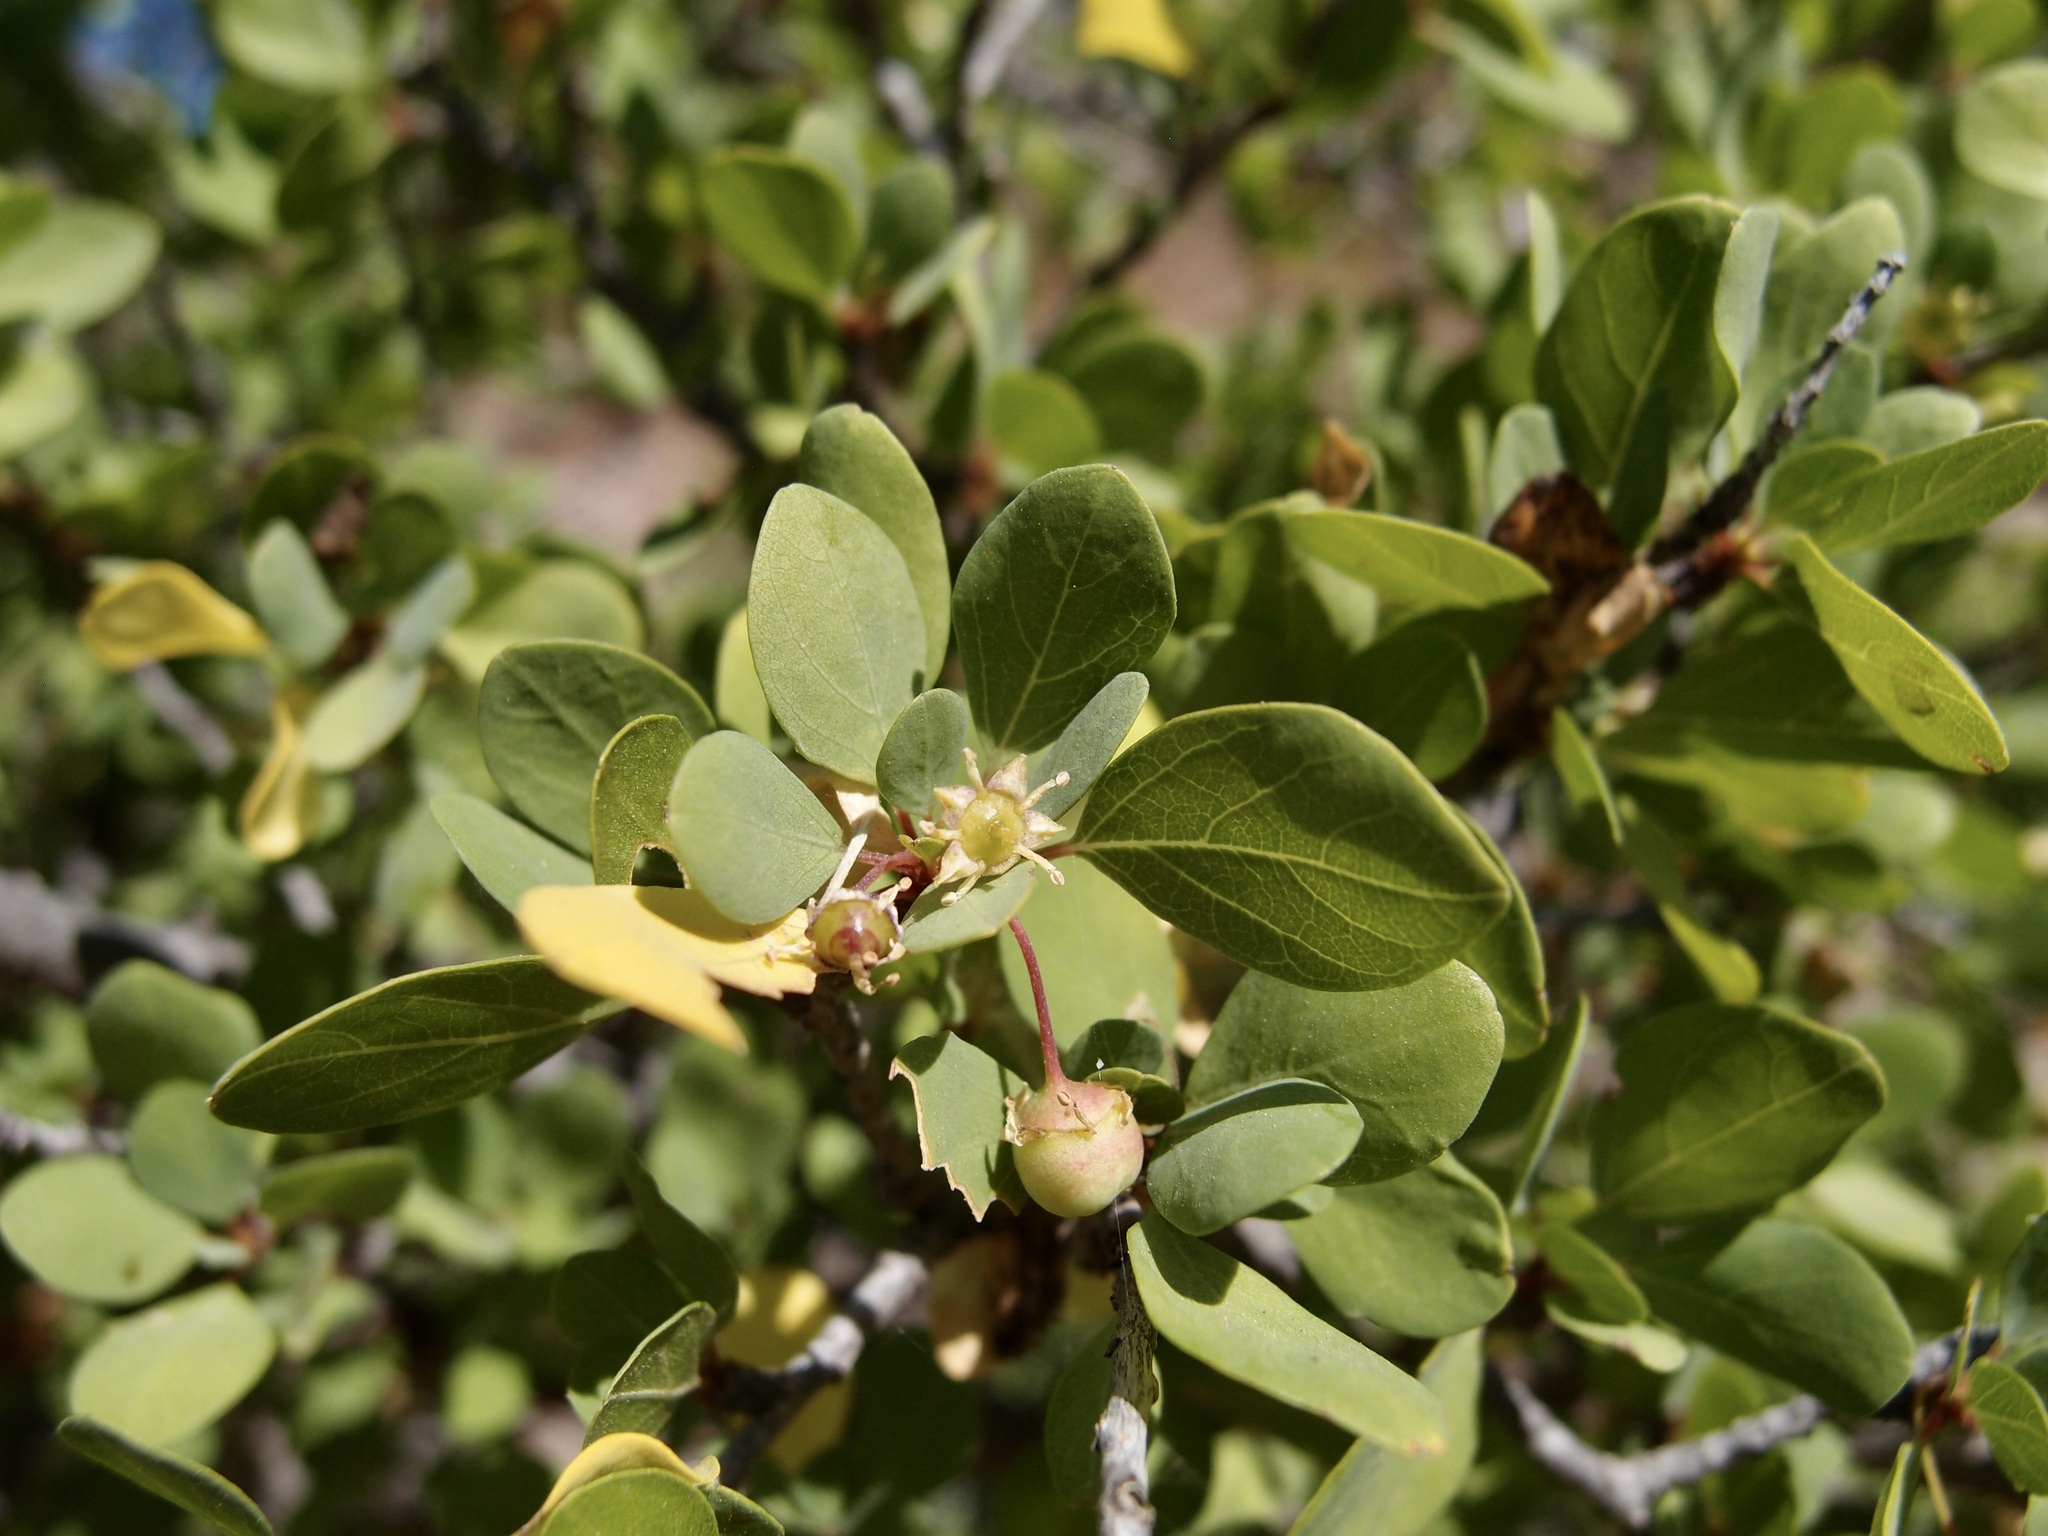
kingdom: Plantae
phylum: Tracheophyta
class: Magnoliopsida
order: Rosales
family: Rhamnaceae
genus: Colubrina
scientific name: Colubrina viridis
